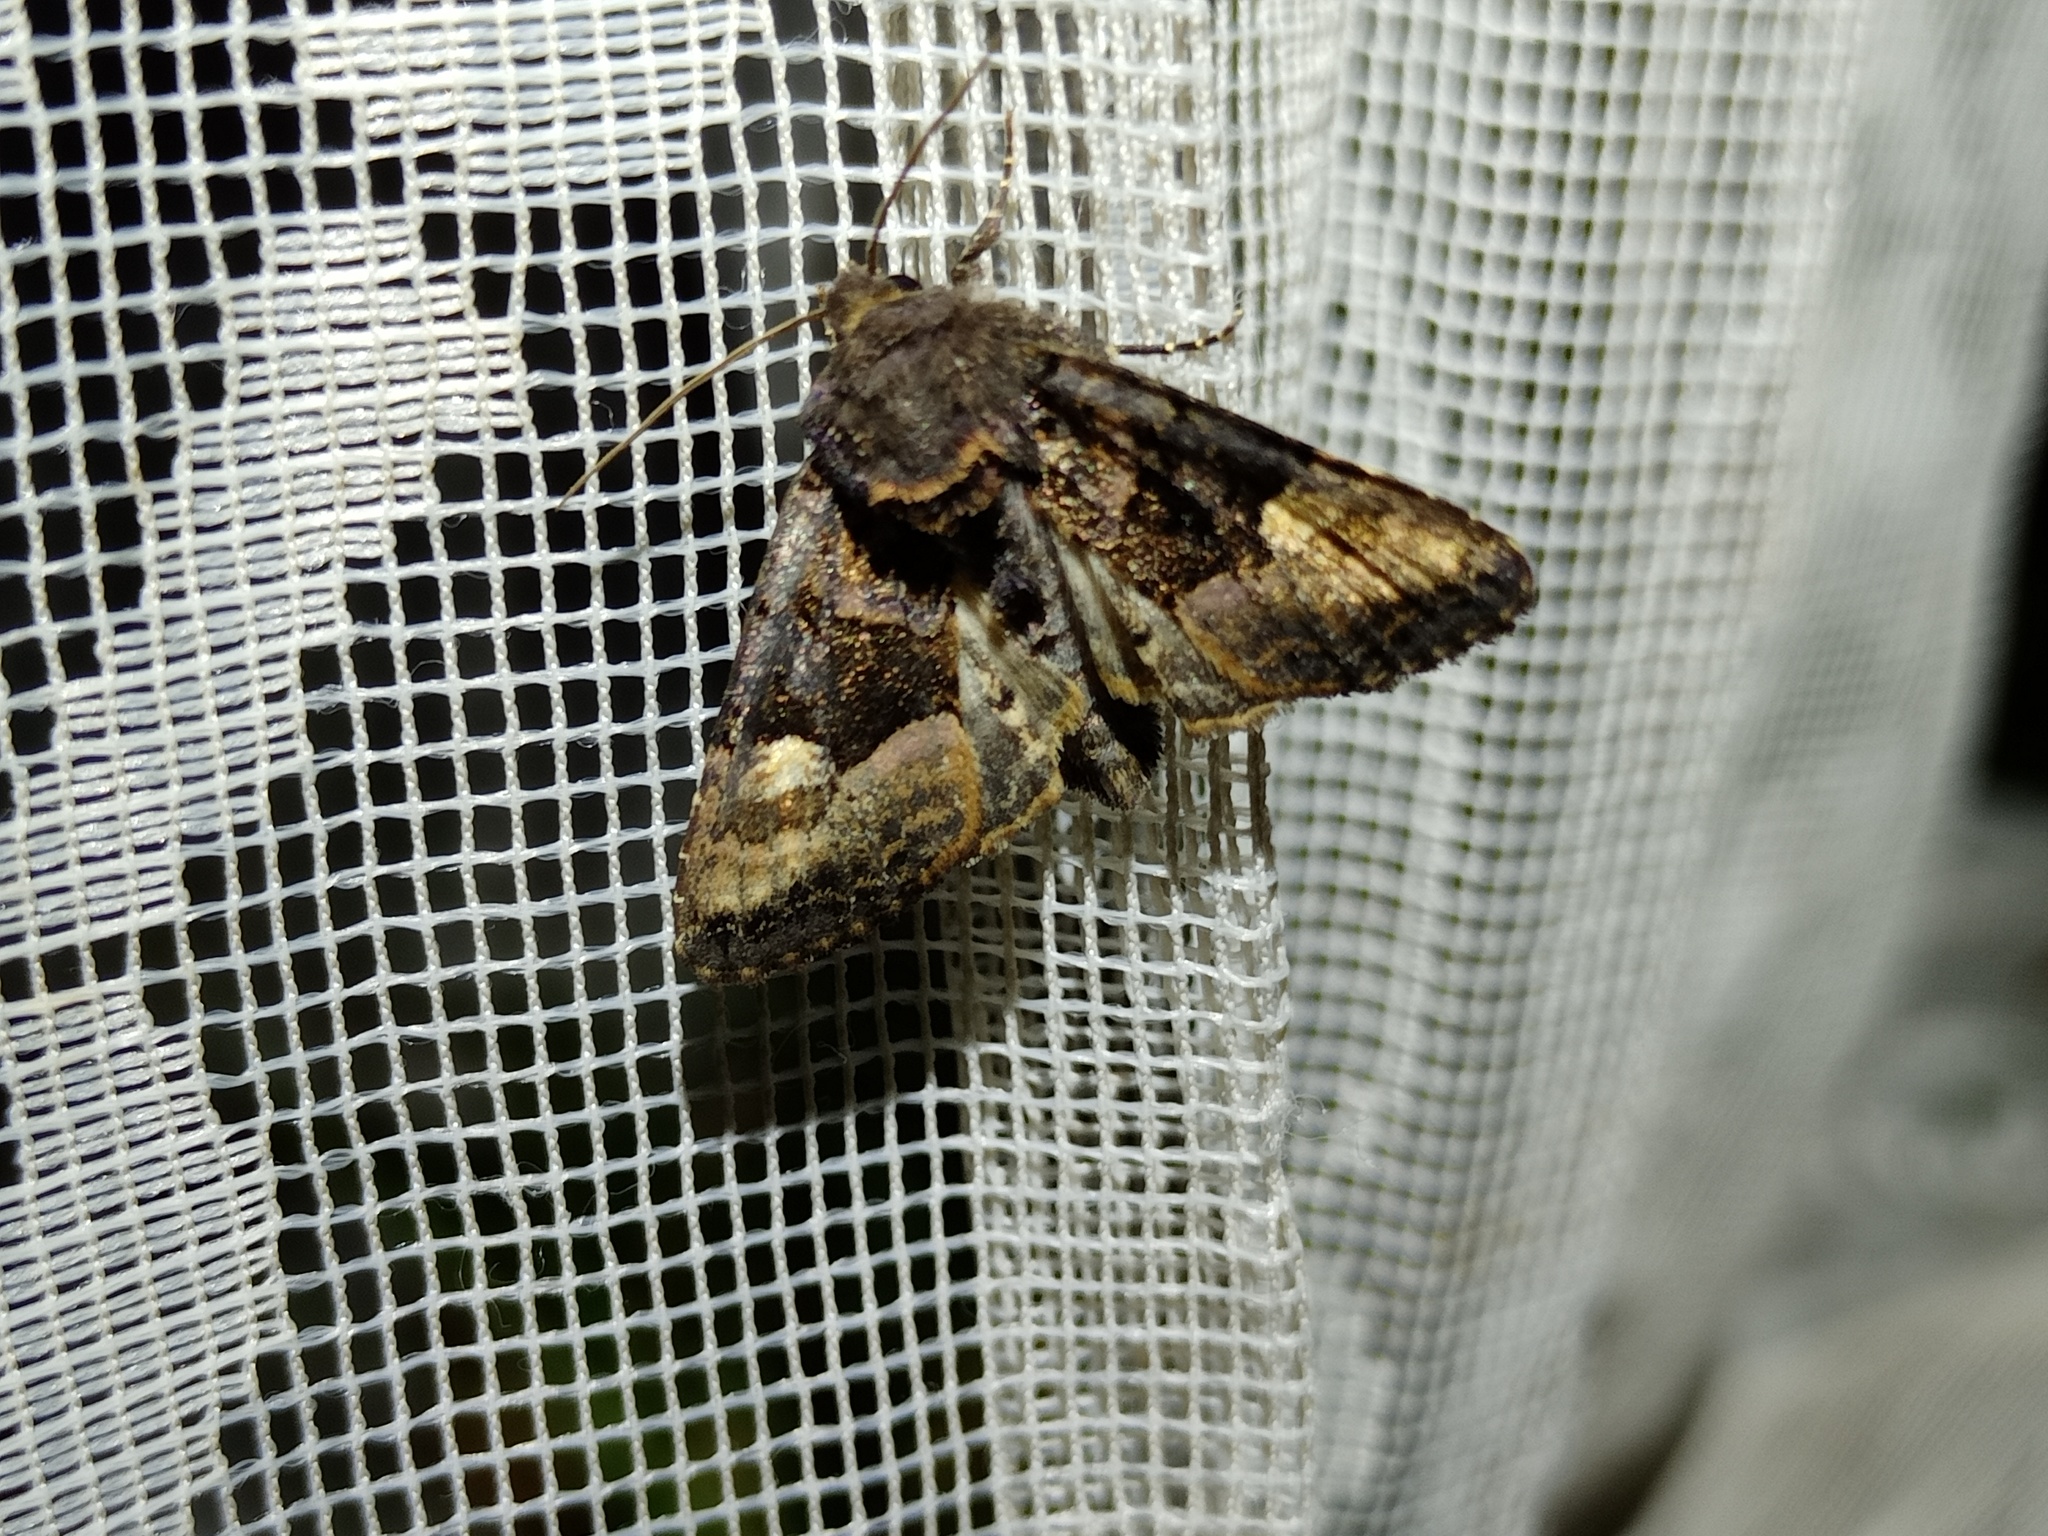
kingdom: Animalia
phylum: Arthropoda
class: Insecta
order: Lepidoptera
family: Noctuidae
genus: Euplexia
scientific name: Euplexia lucipara
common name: Small angle shades
